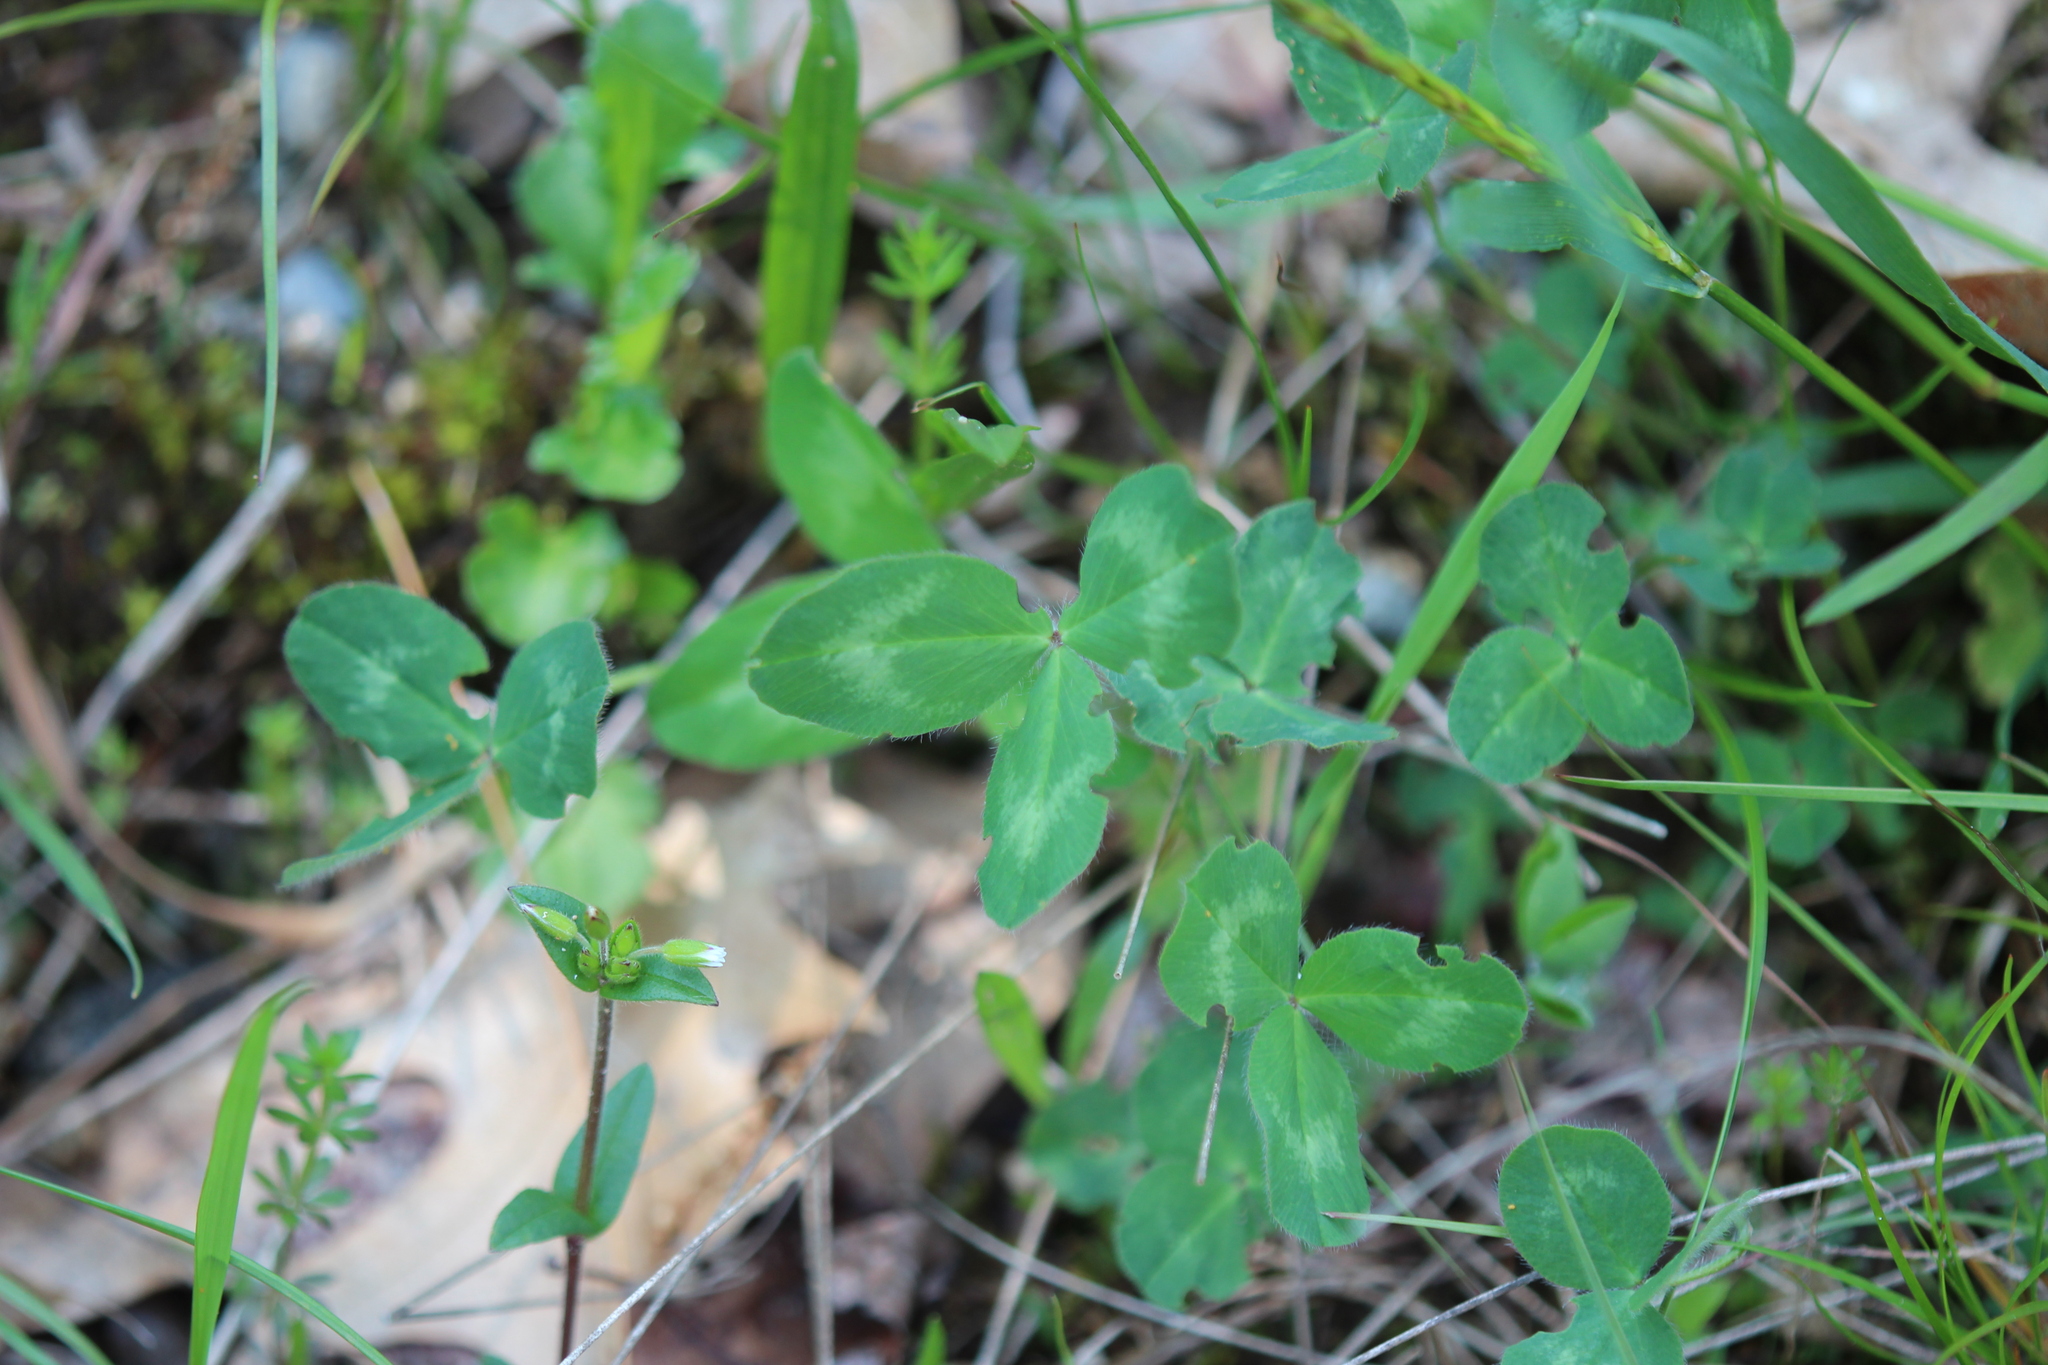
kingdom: Plantae
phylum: Tracheophyta
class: Magnoliopsida
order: Fabales
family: Fabaceae
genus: Trifolium
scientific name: Trifolium pratense
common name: Red clover
